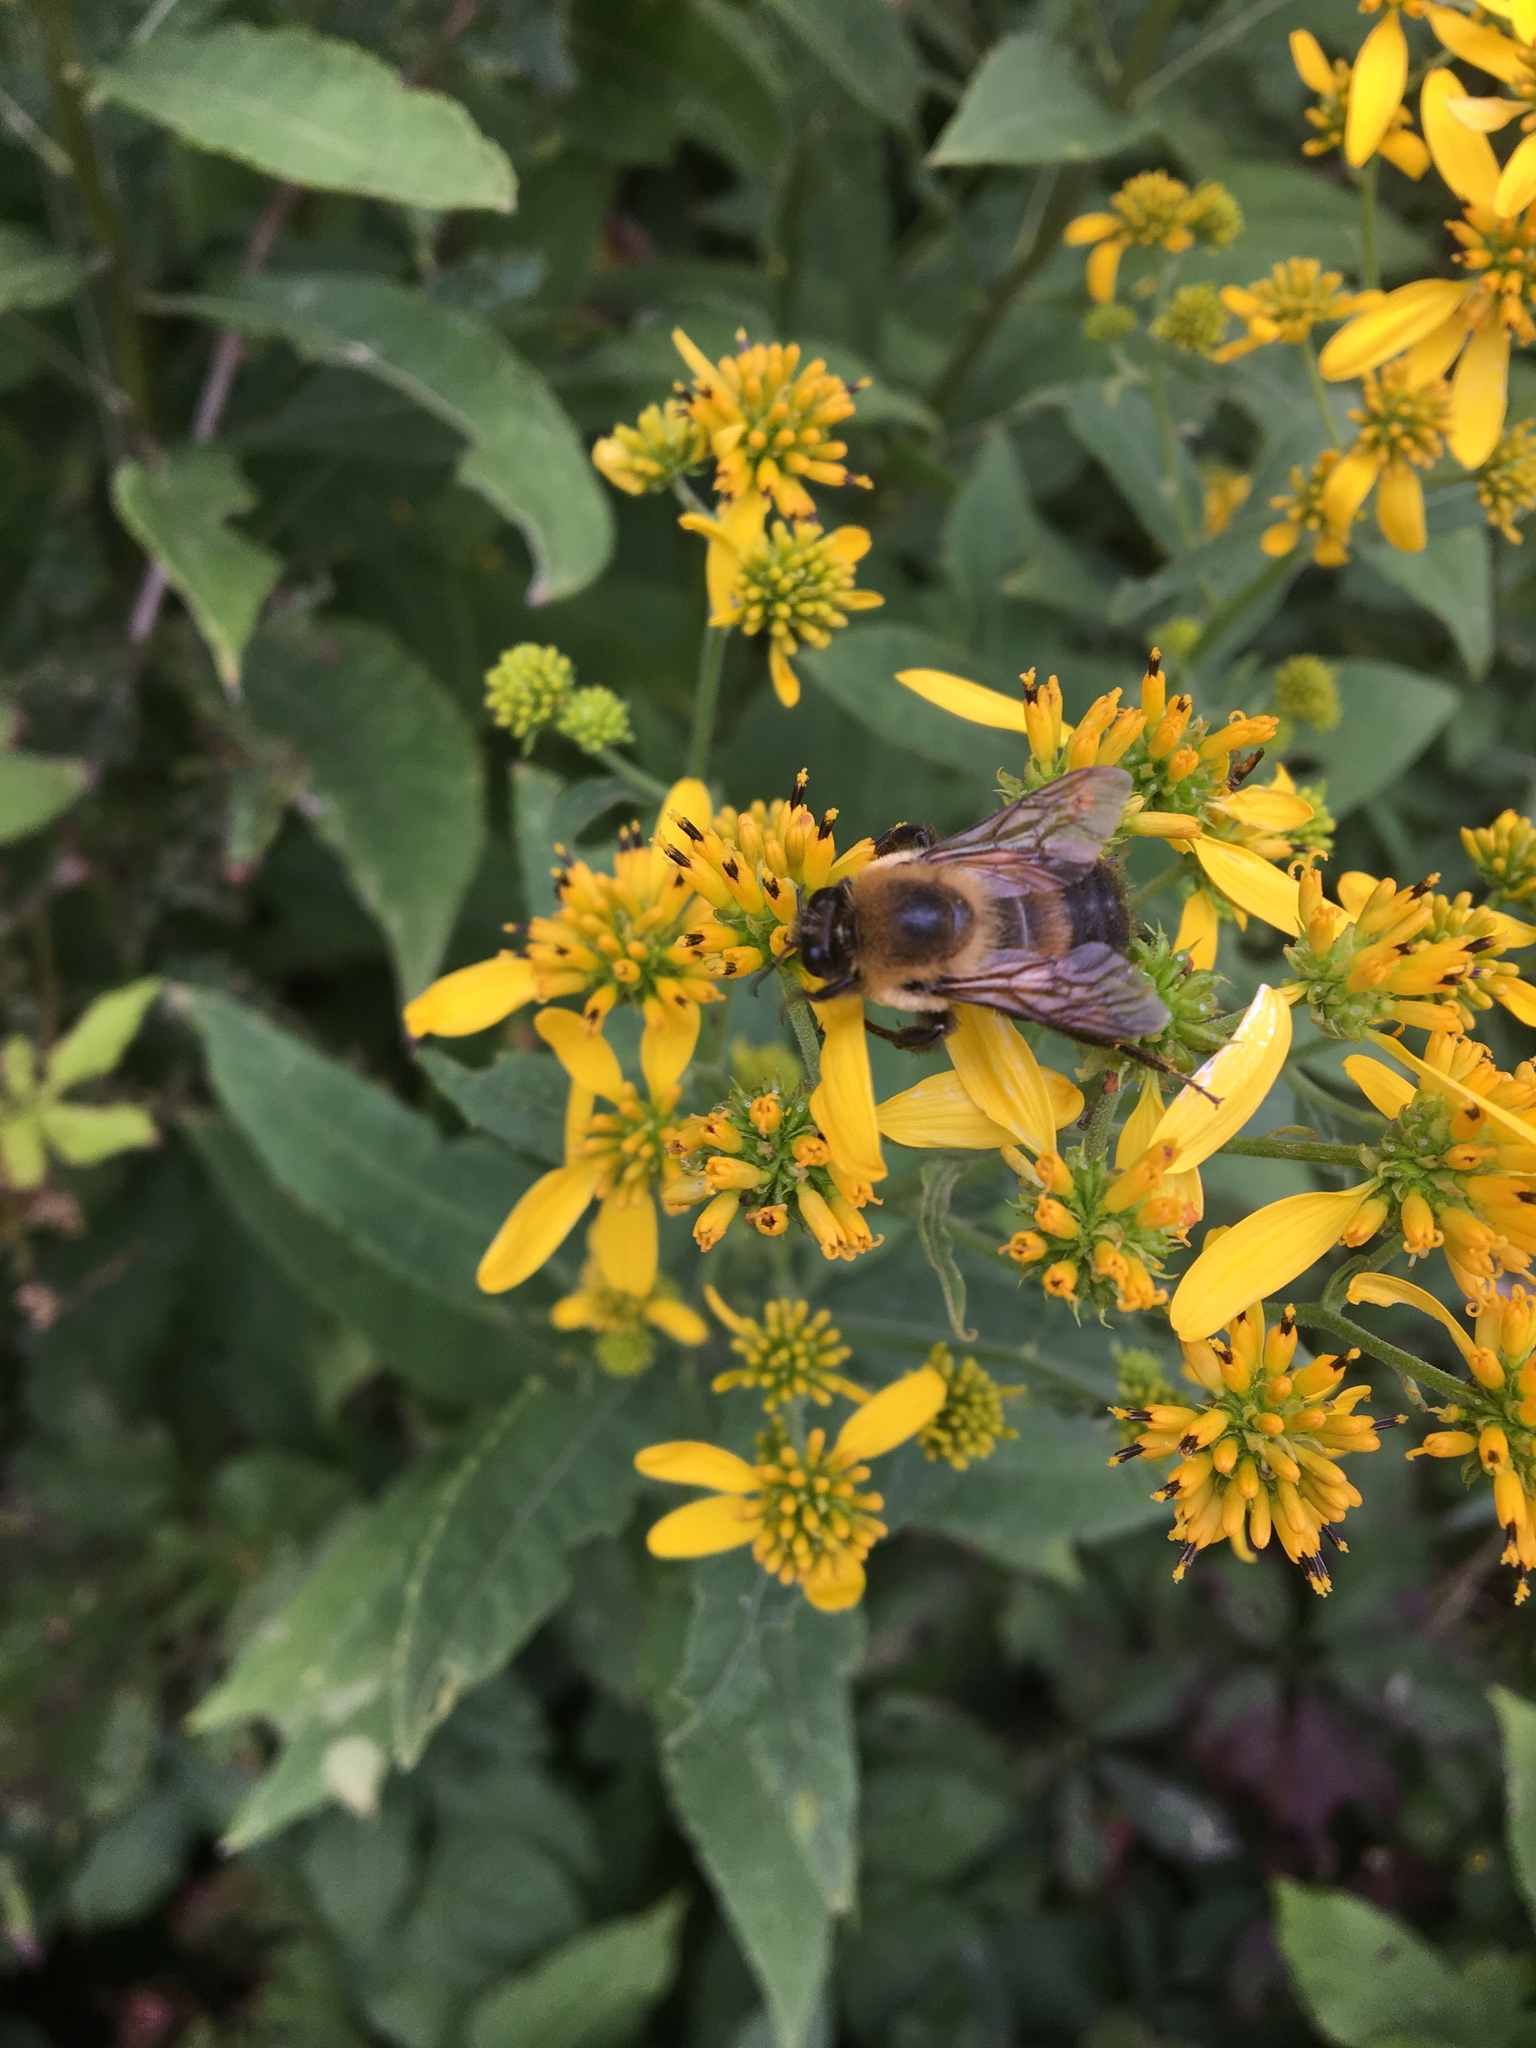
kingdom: Animalia
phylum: Arthropoda
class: Insecta
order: Hymenoptera
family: Apidae
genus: Bombus
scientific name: Bombus griseocollis
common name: Brown-belted bumble bee
